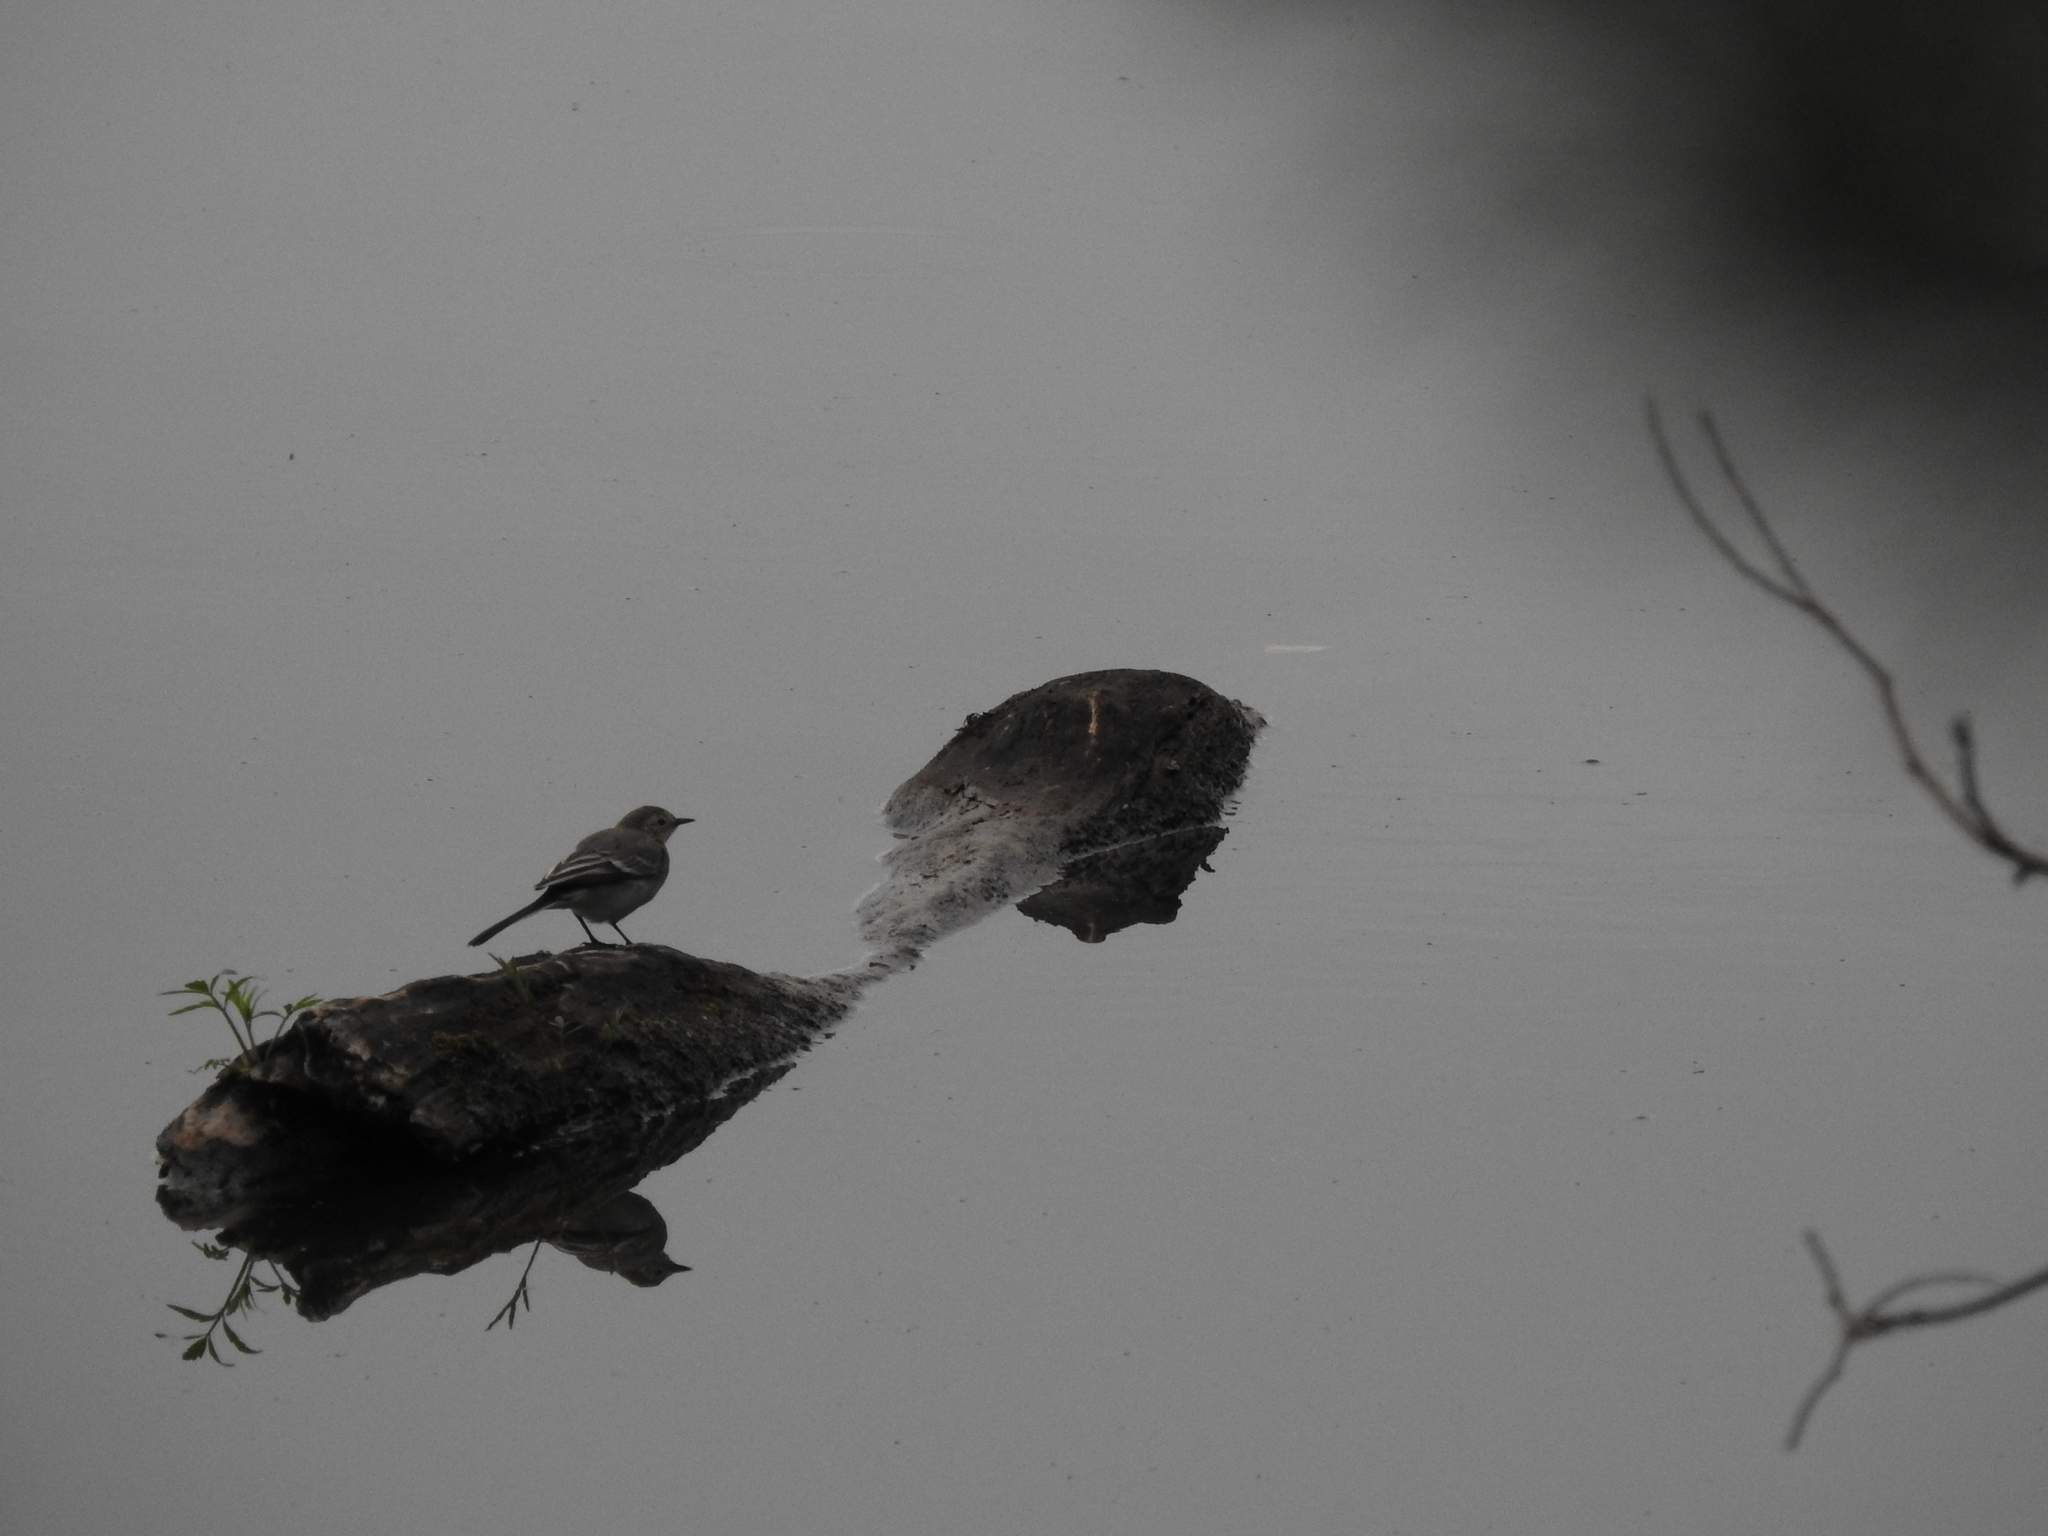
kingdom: Animalia
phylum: Chordata
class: Aves
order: Passeriformes
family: Motacillidae
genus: Motacilla
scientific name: Motacilla alba
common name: White wagtail
